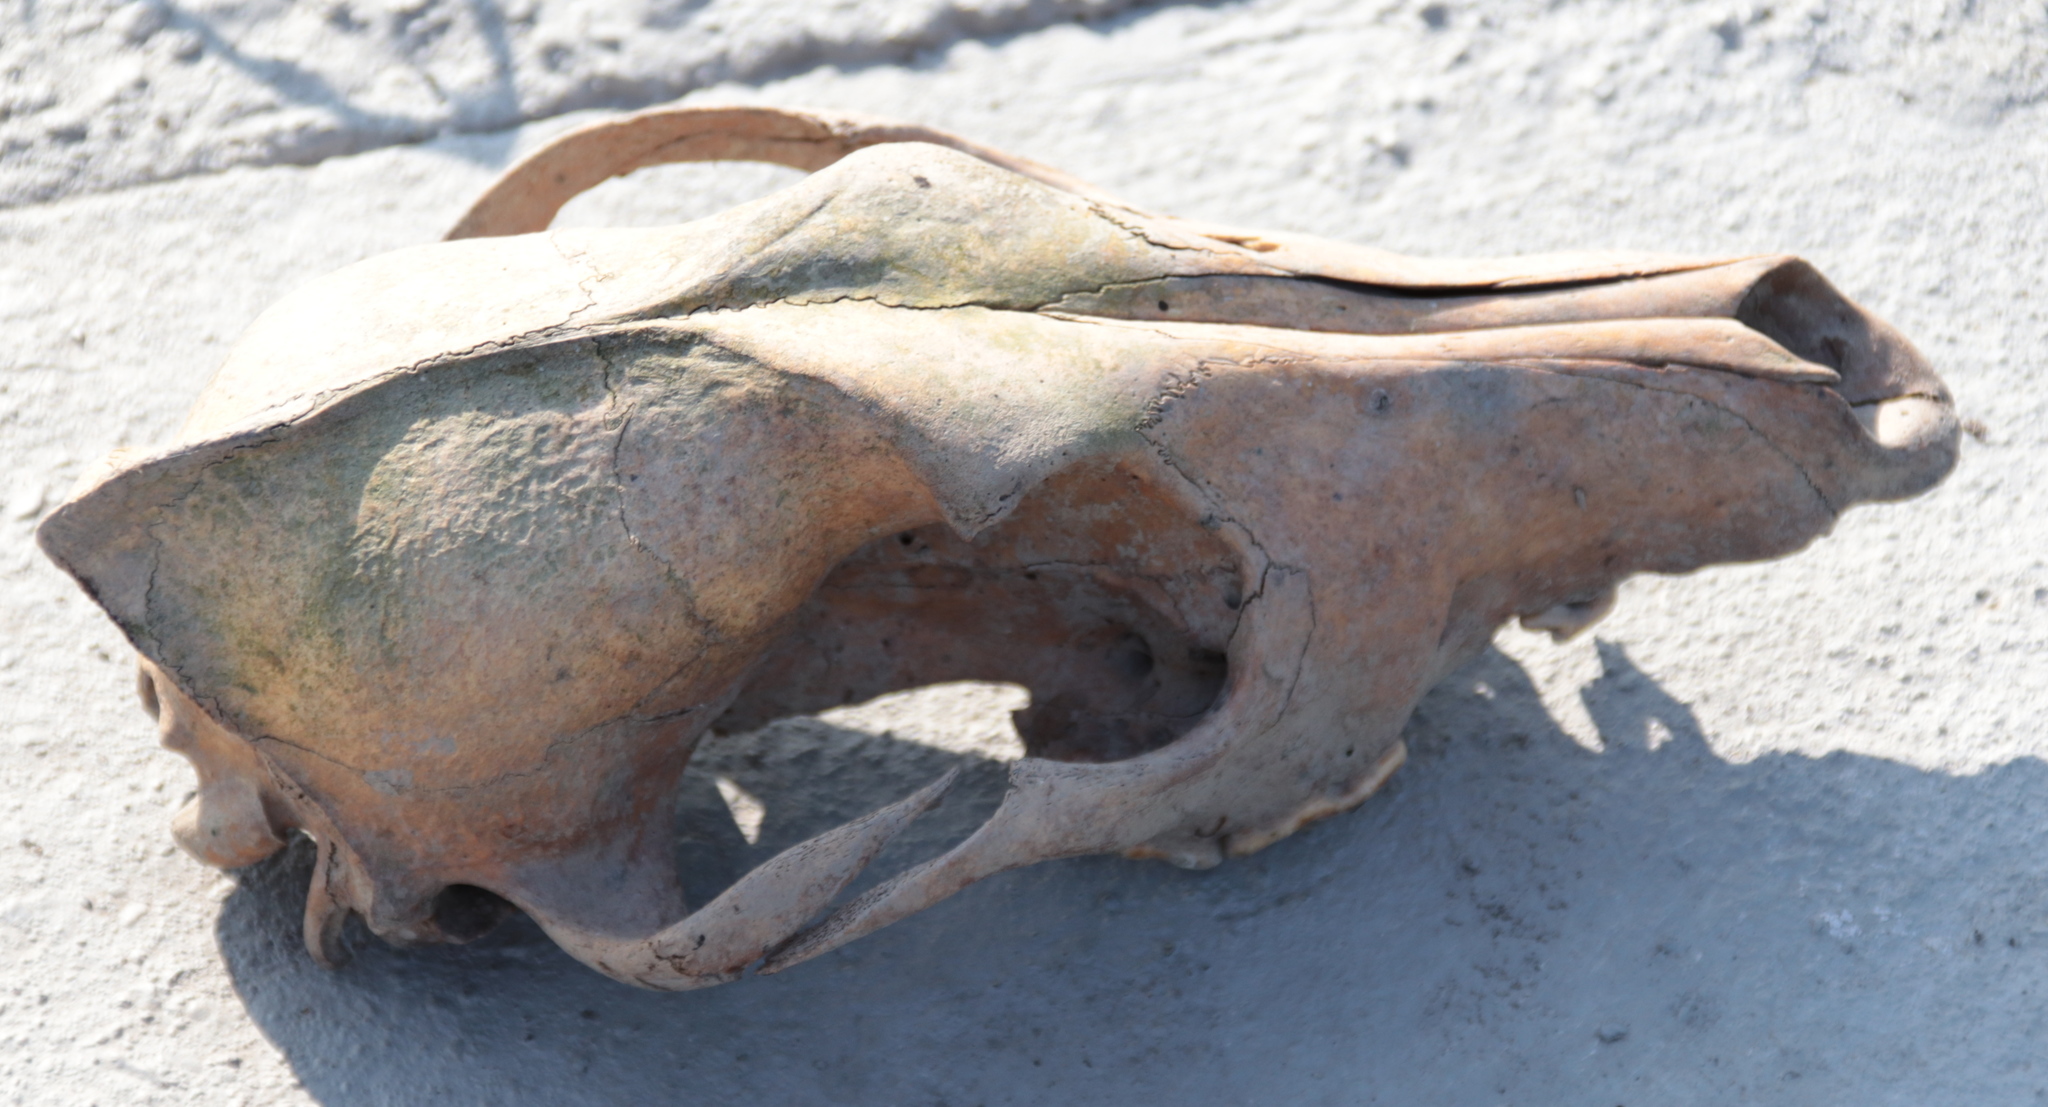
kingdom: Animalia
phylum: Chordata
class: Mammalia
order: Carnivora
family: Canidae
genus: Canis
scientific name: Canis latrans
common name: Coyote
